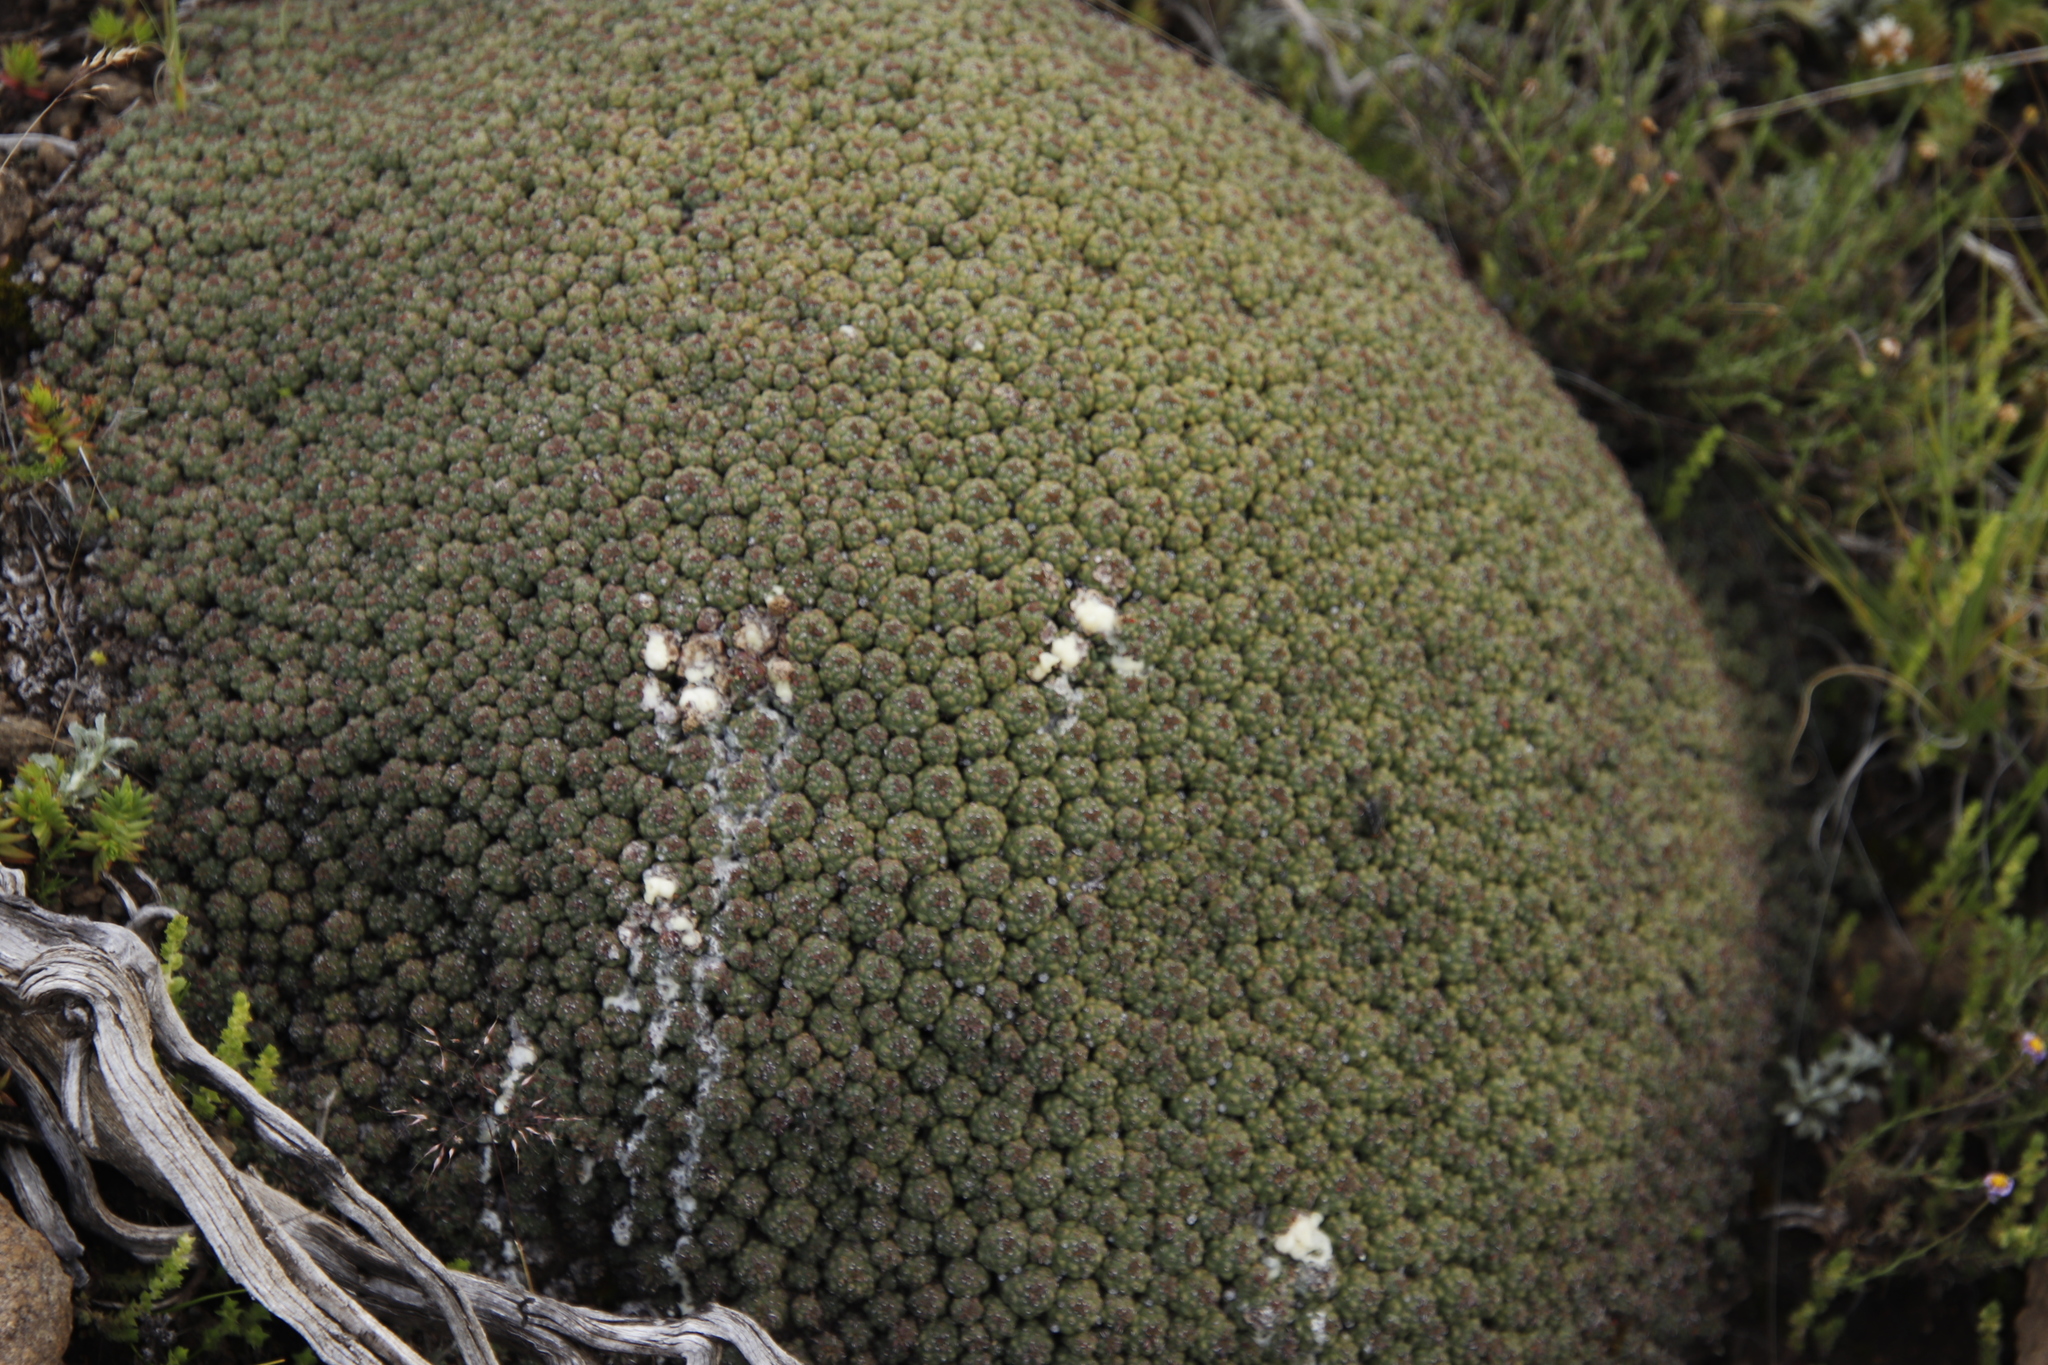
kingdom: Plantae
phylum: Tracheophyta
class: Magnoliopsida
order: Malpighiales
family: Euphorbiaceae
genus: Euphorbia
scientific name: Euphorbia clavarioides
